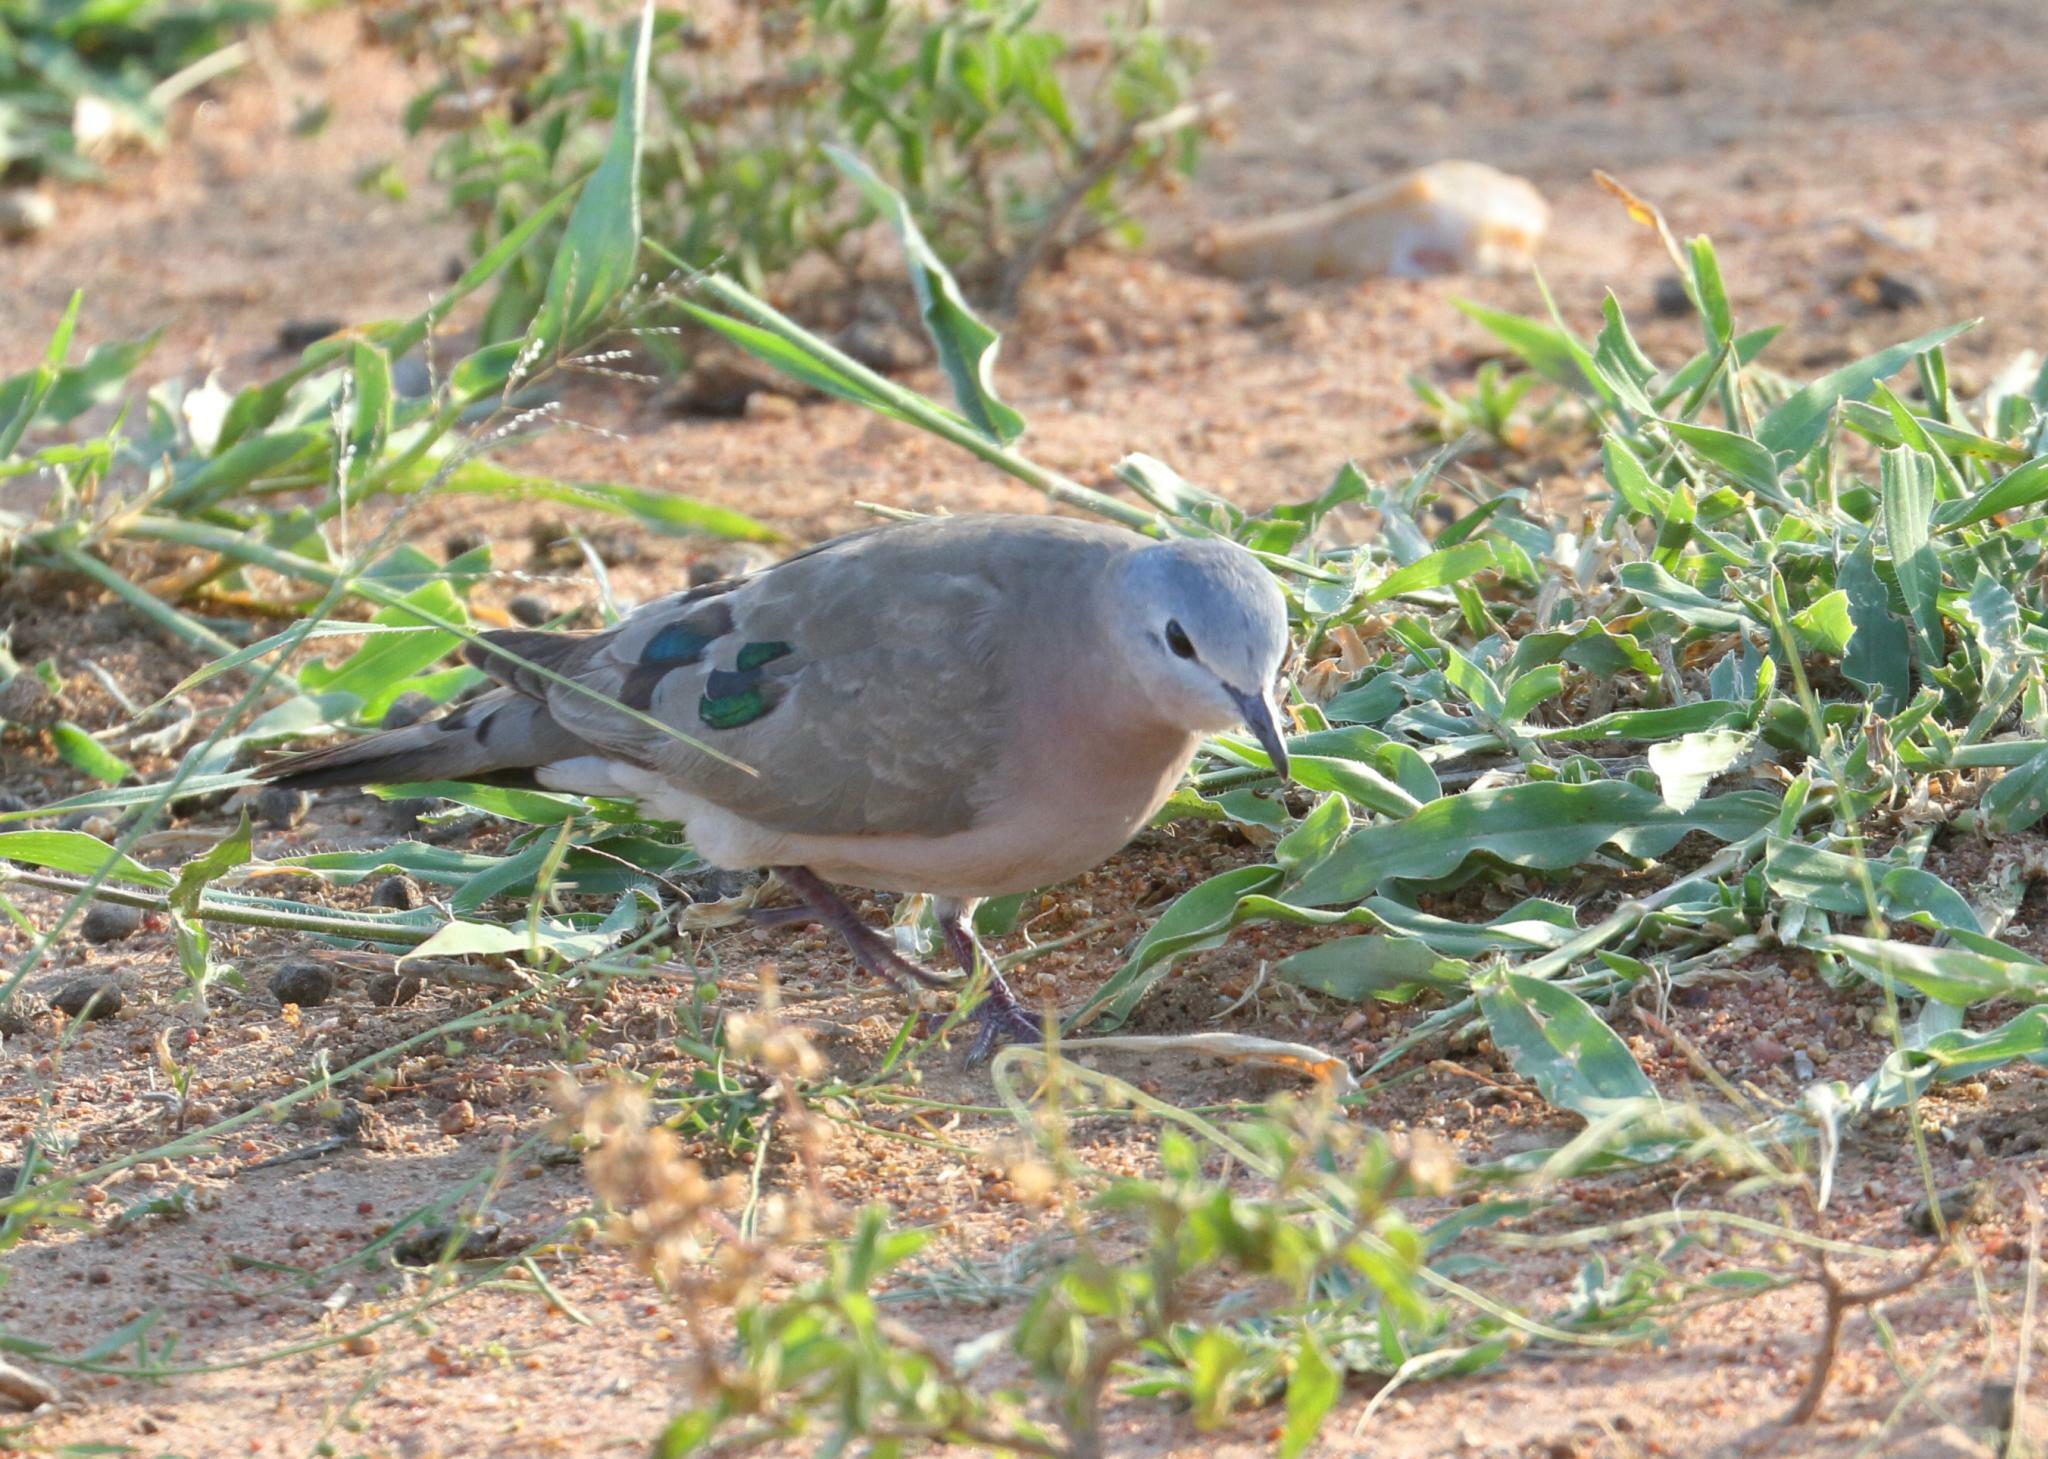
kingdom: Animalia
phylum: Chordata
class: Aves
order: Columbiformes
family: Columbidae
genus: Turtur
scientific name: Turtur chalcospilos
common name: Emerald-spotted wood dove
